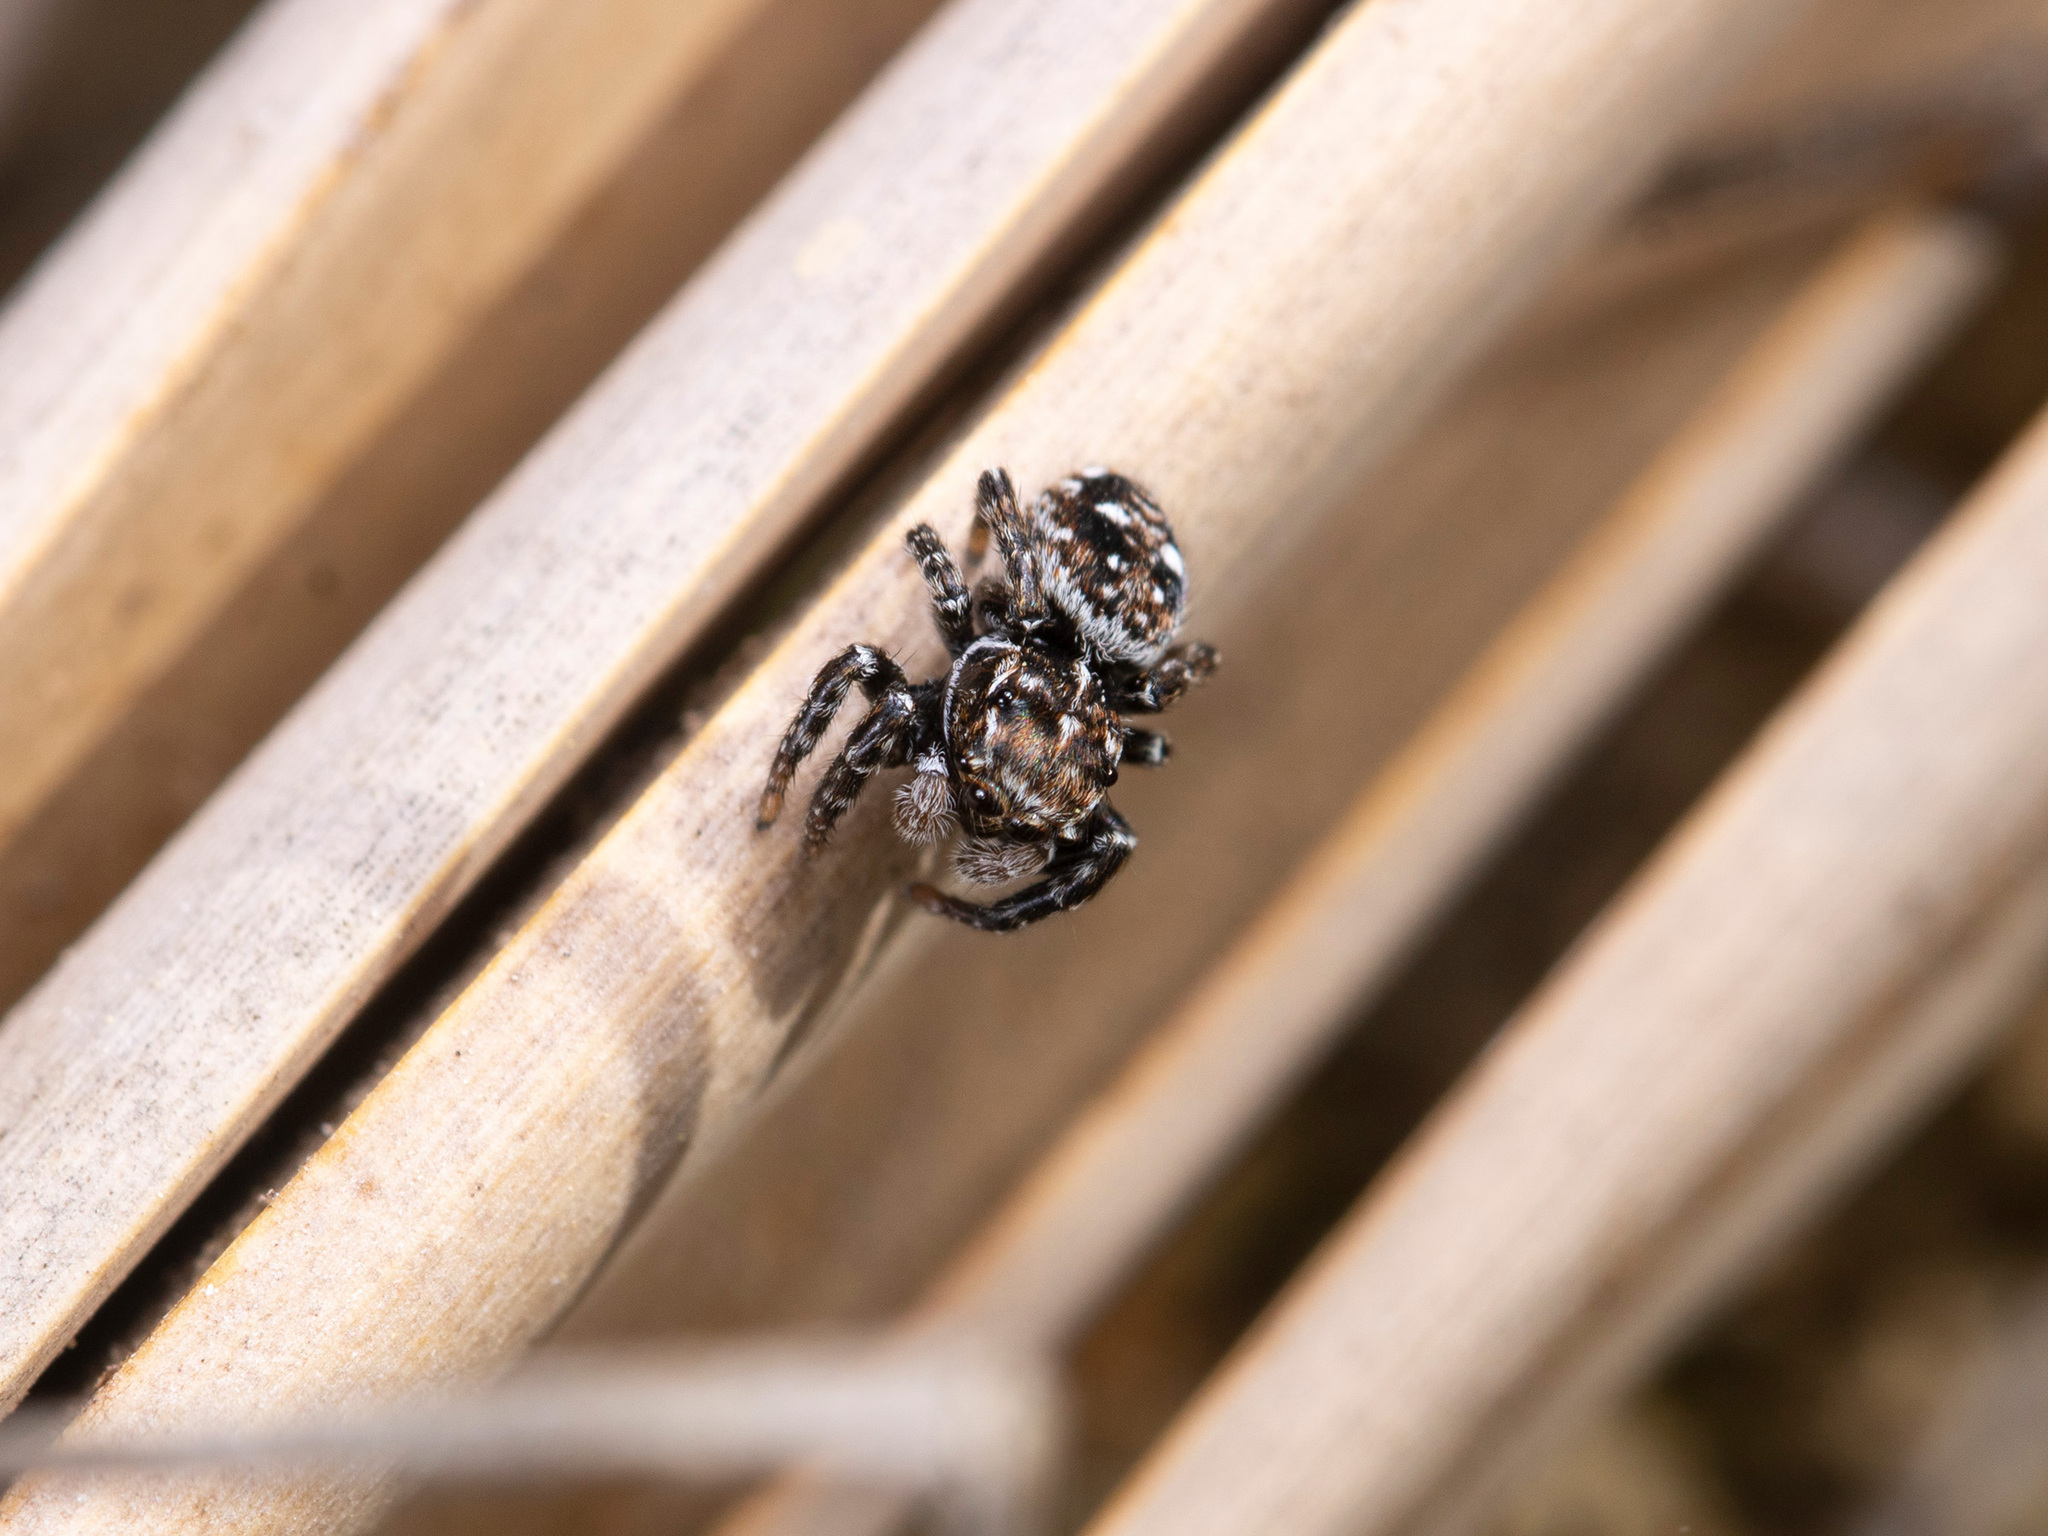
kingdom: Animalia
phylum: Arthropoda
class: Arachnida
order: Araneae
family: Salticidae
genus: Attulus
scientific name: Attulus inexpectus
